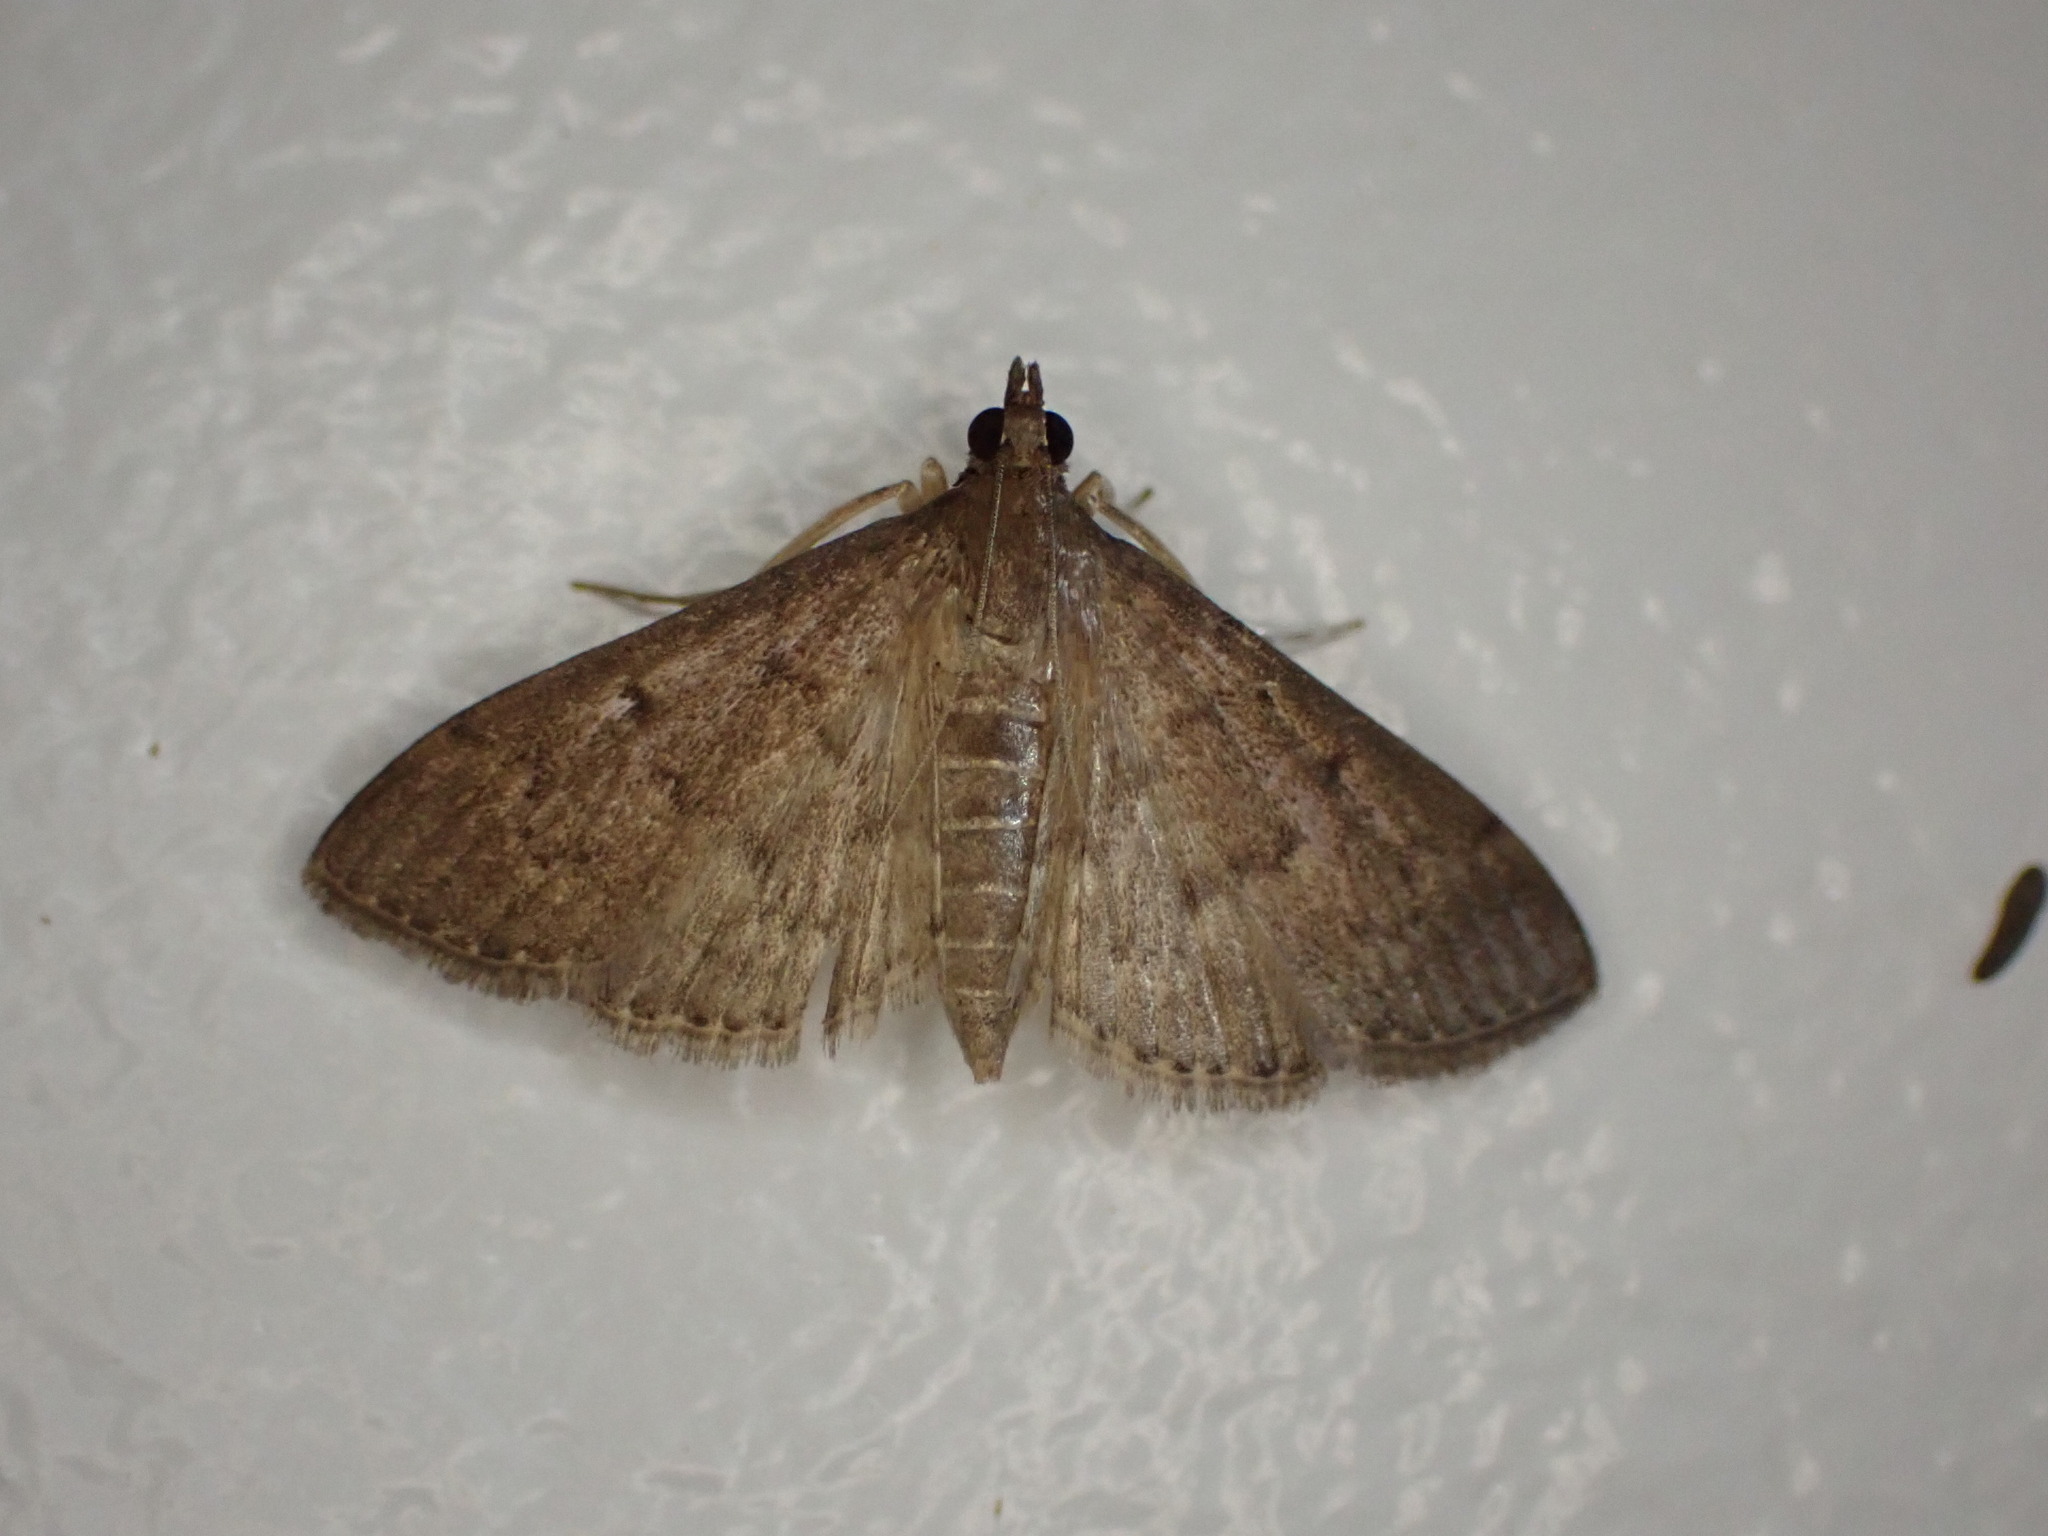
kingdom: Animalia
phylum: Arthropoda
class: Insecta
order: Lepidoptera
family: Crambidae
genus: Herpetogramma
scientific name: Herpetogramma licarsisalis
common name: Grass webworm
